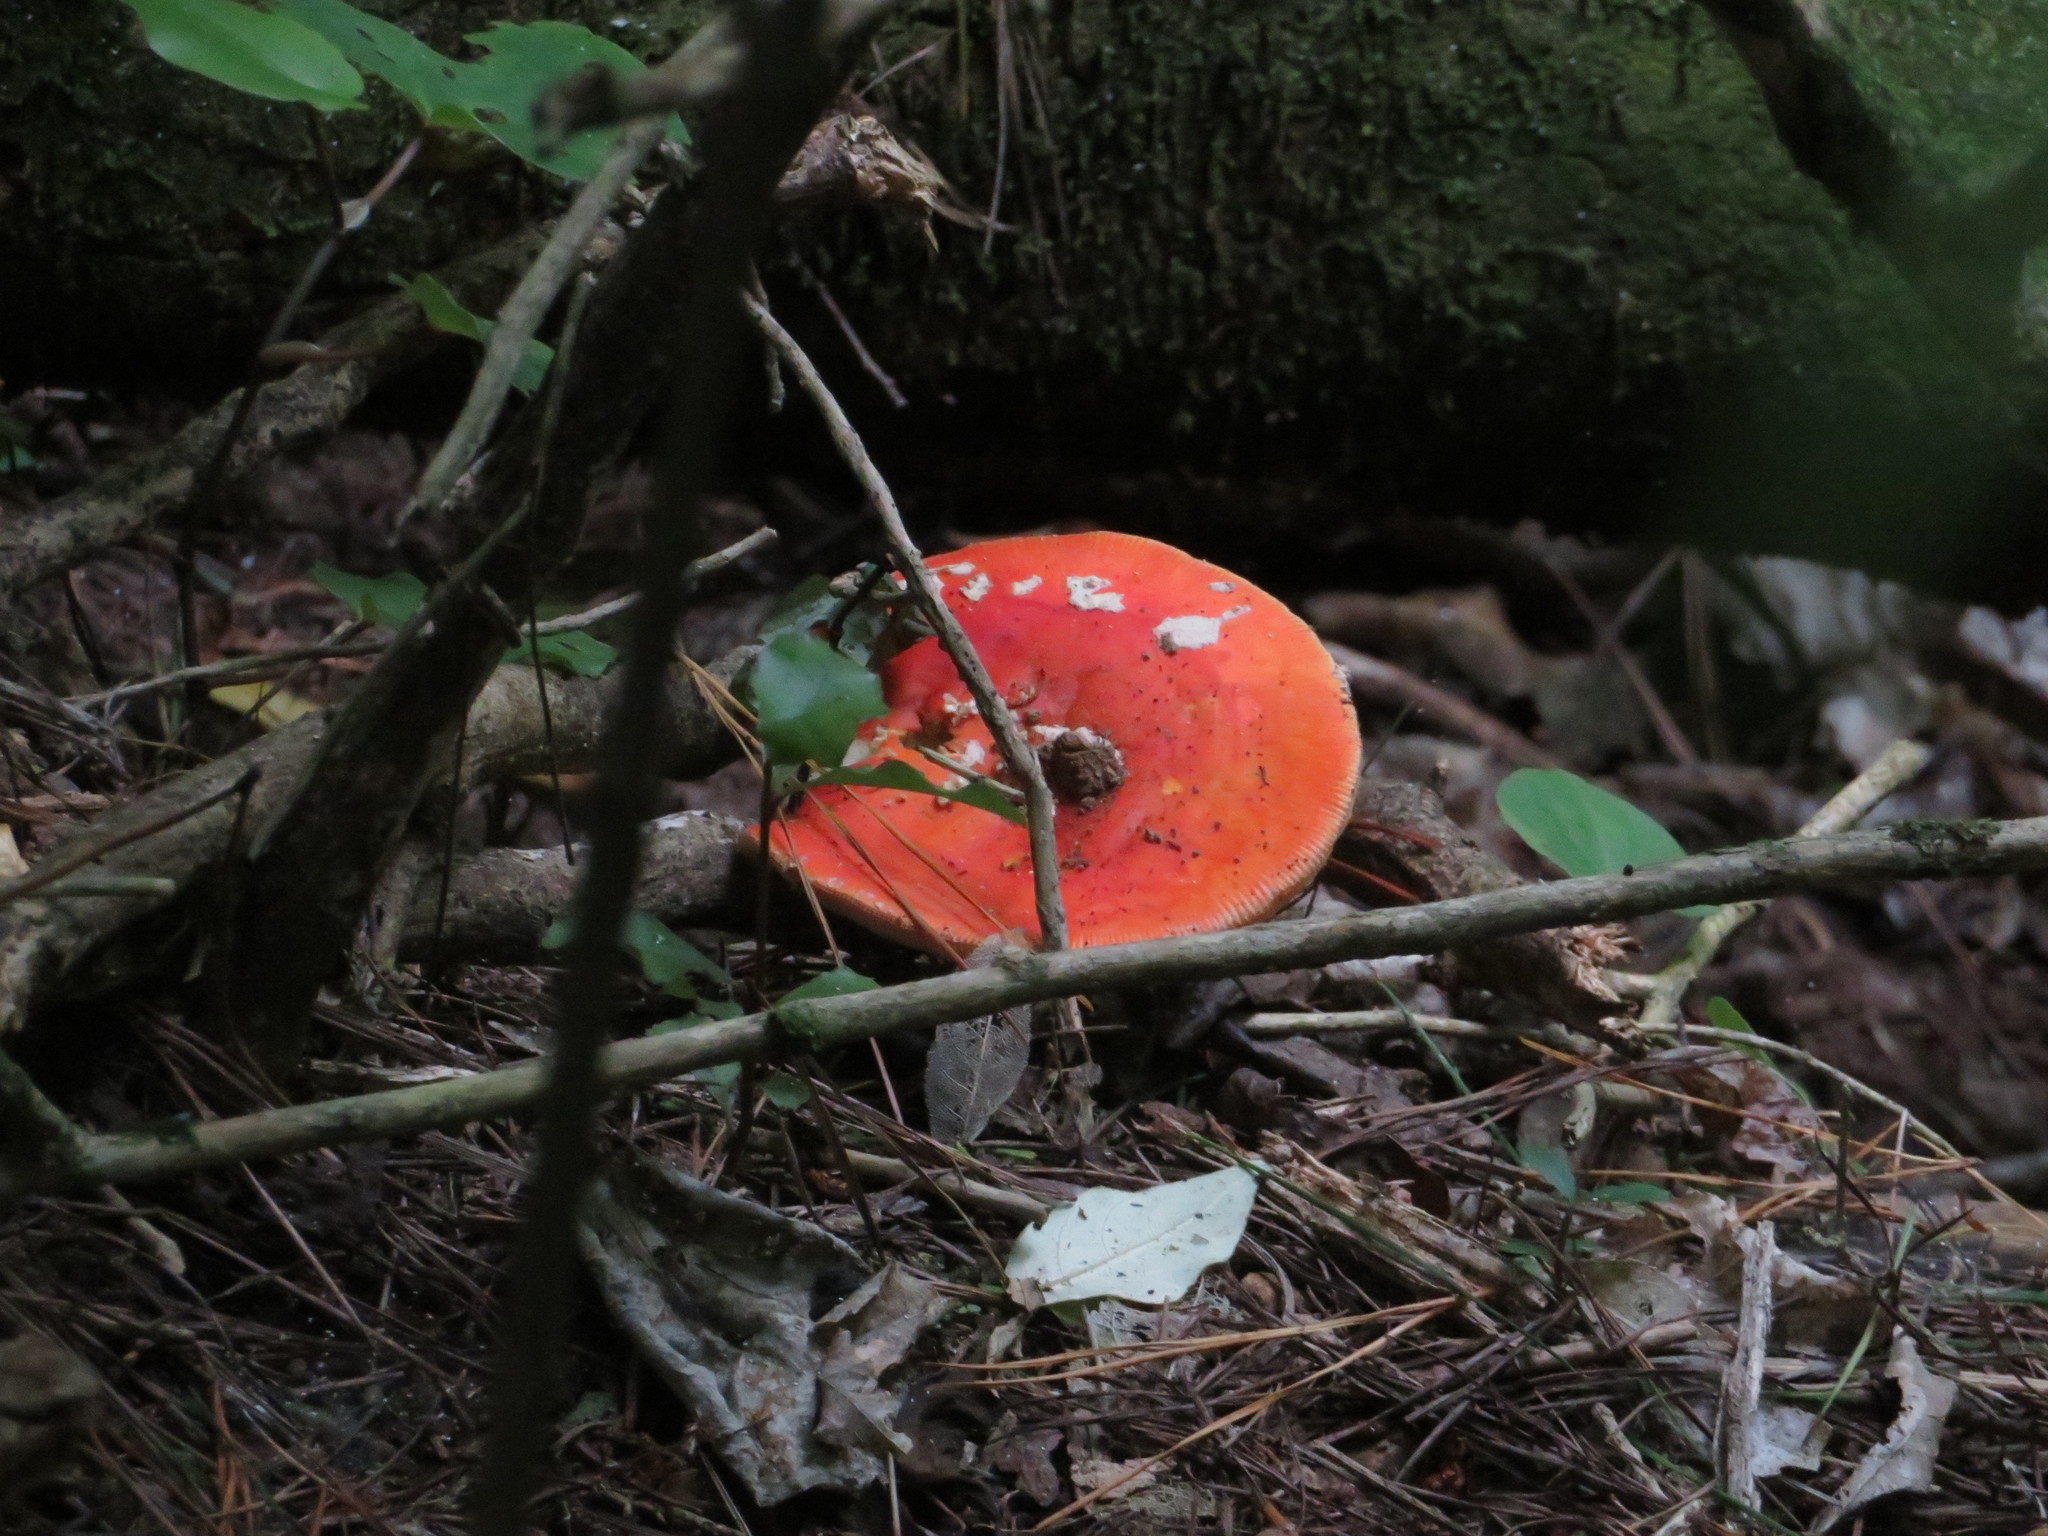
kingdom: Fungi
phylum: Basidiomycota
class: Agaricomycetes
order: Agaricales
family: Amanitaceae
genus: Amanita
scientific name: Amanita muscaria
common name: Fly agaric
